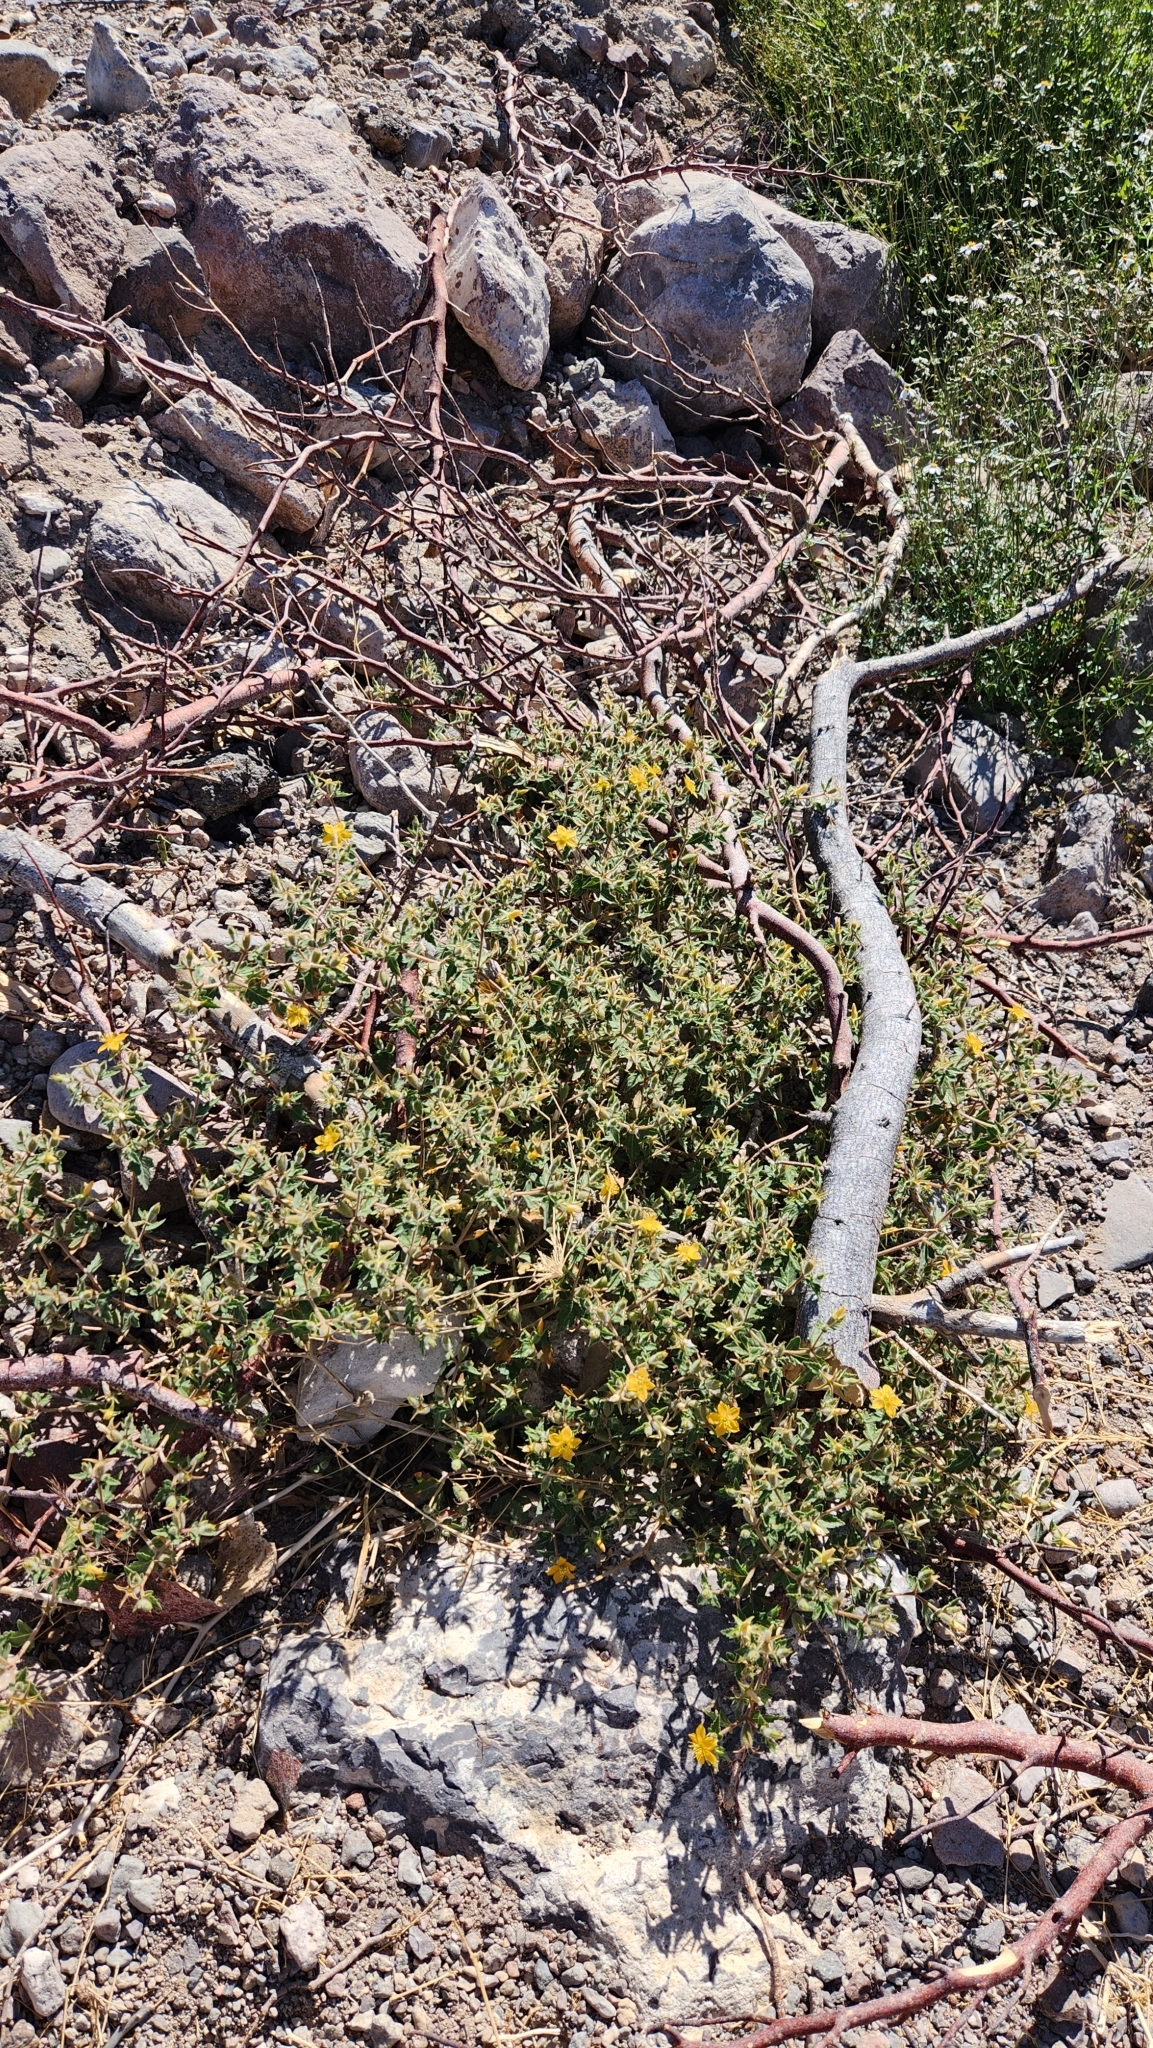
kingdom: Plantae
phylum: Tracheophyta
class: Magnoliopsida
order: Cornales
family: Loasaceae
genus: Mentzelia
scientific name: Mentzelia adhaerens
